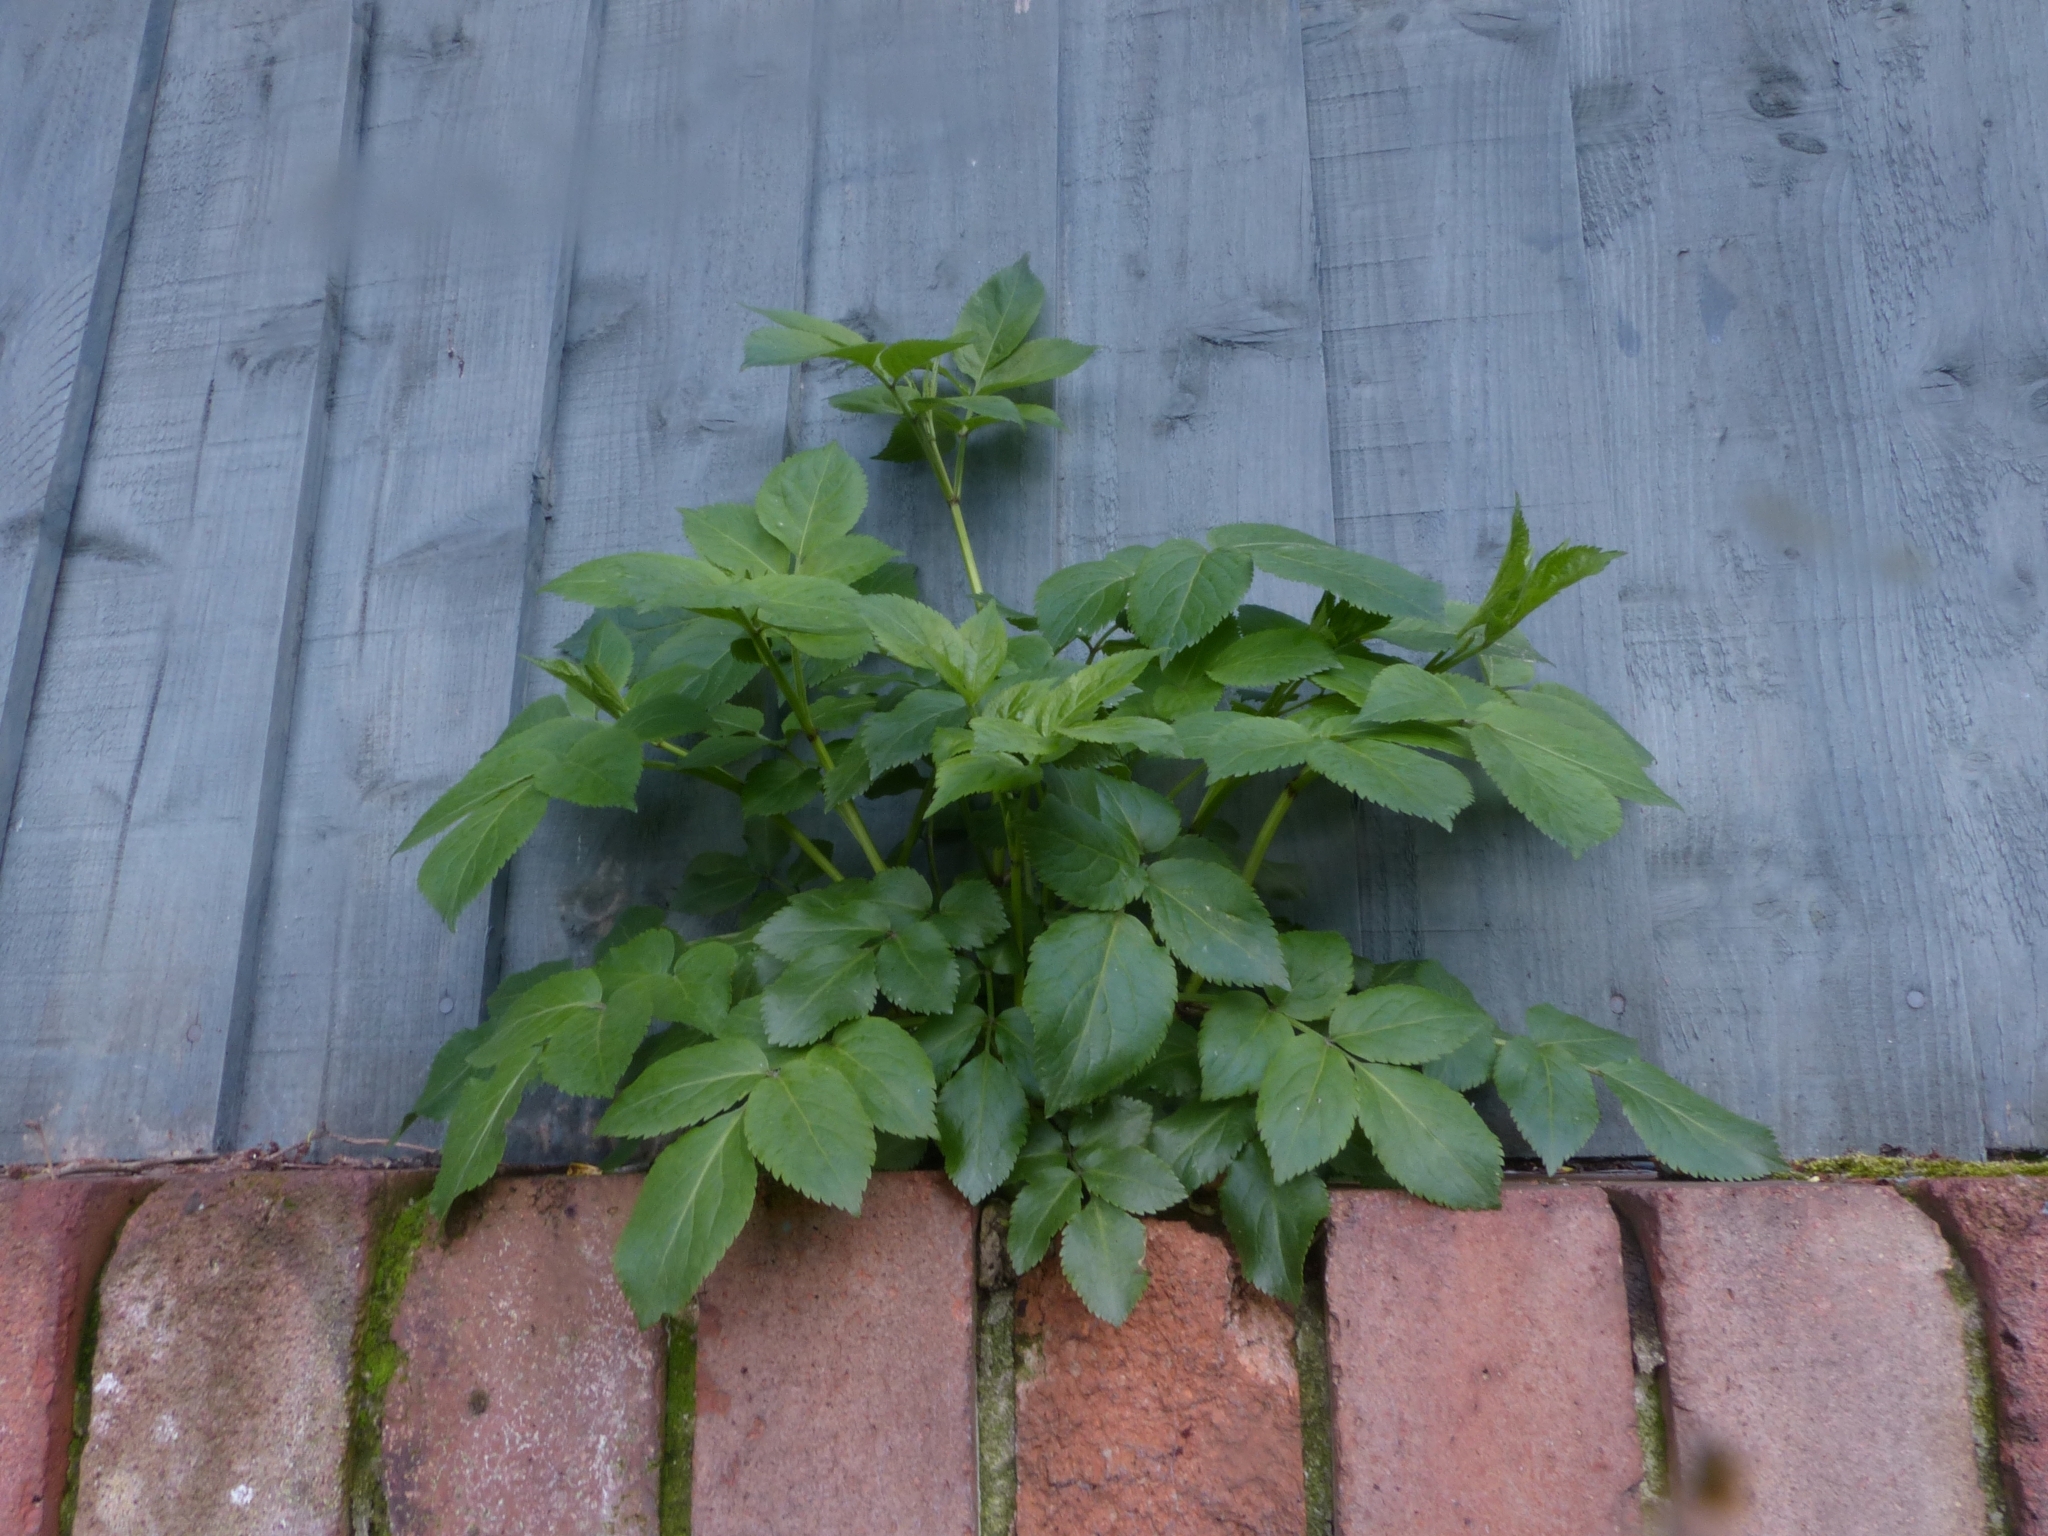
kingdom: Plantae
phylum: Tracheophyta
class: Magnoliopsida
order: Dipsacales
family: Viburnaceae
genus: Sambucus
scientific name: Sambucus nigra
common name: Elder
